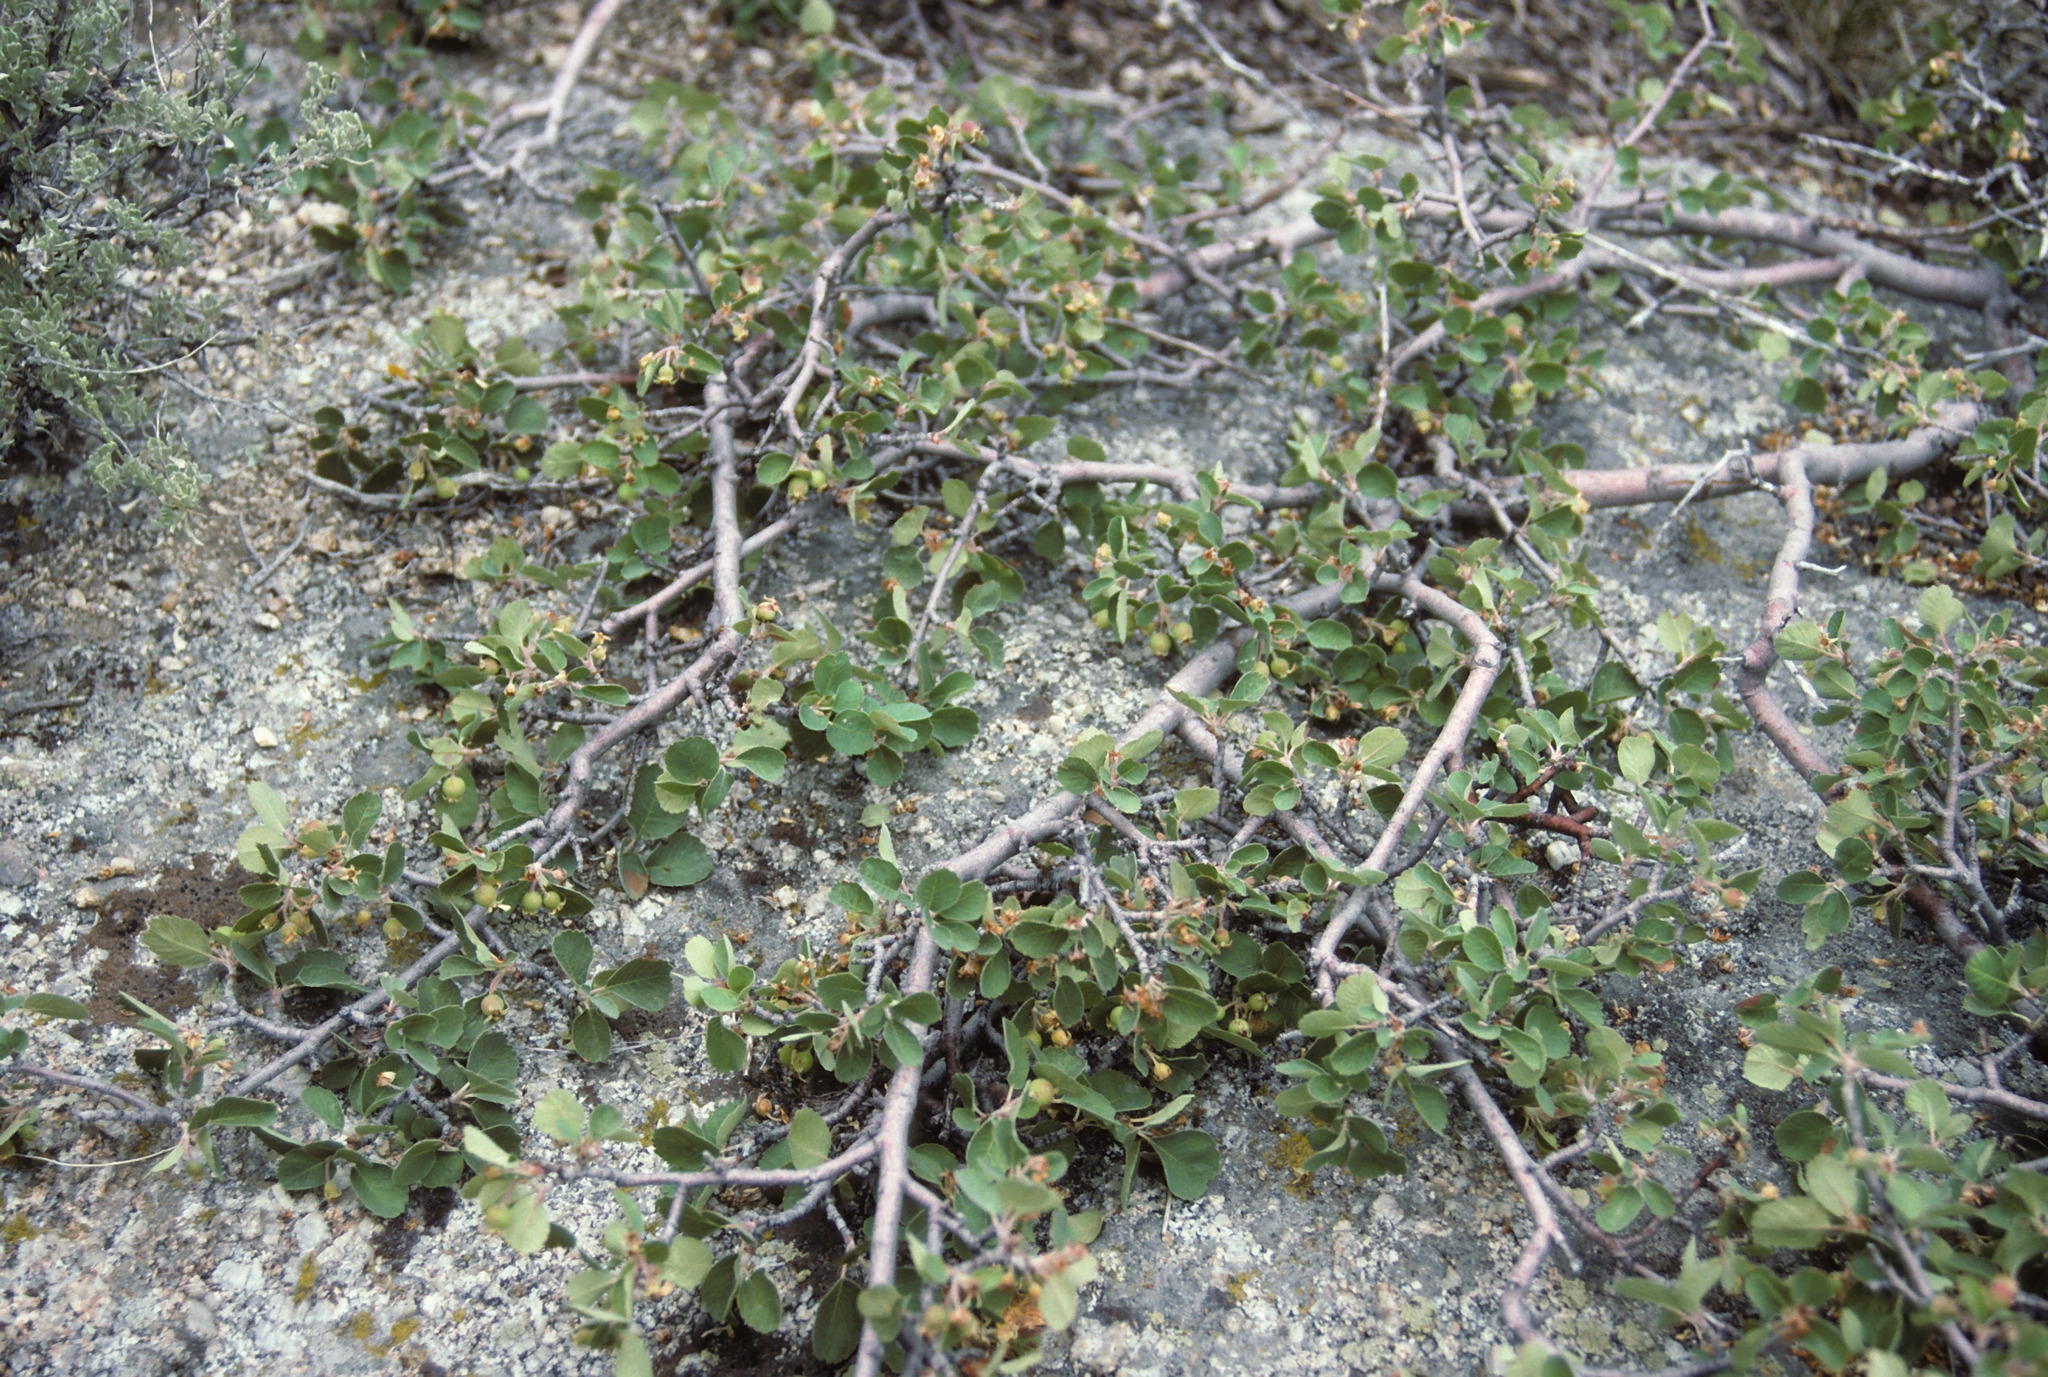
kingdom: Plantae
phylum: Tracheophyta
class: Magnoliopsida
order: Rosales
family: Rosaceae
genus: Amelanchier
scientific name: Amelanchier utahensis
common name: Utah serviceberry
